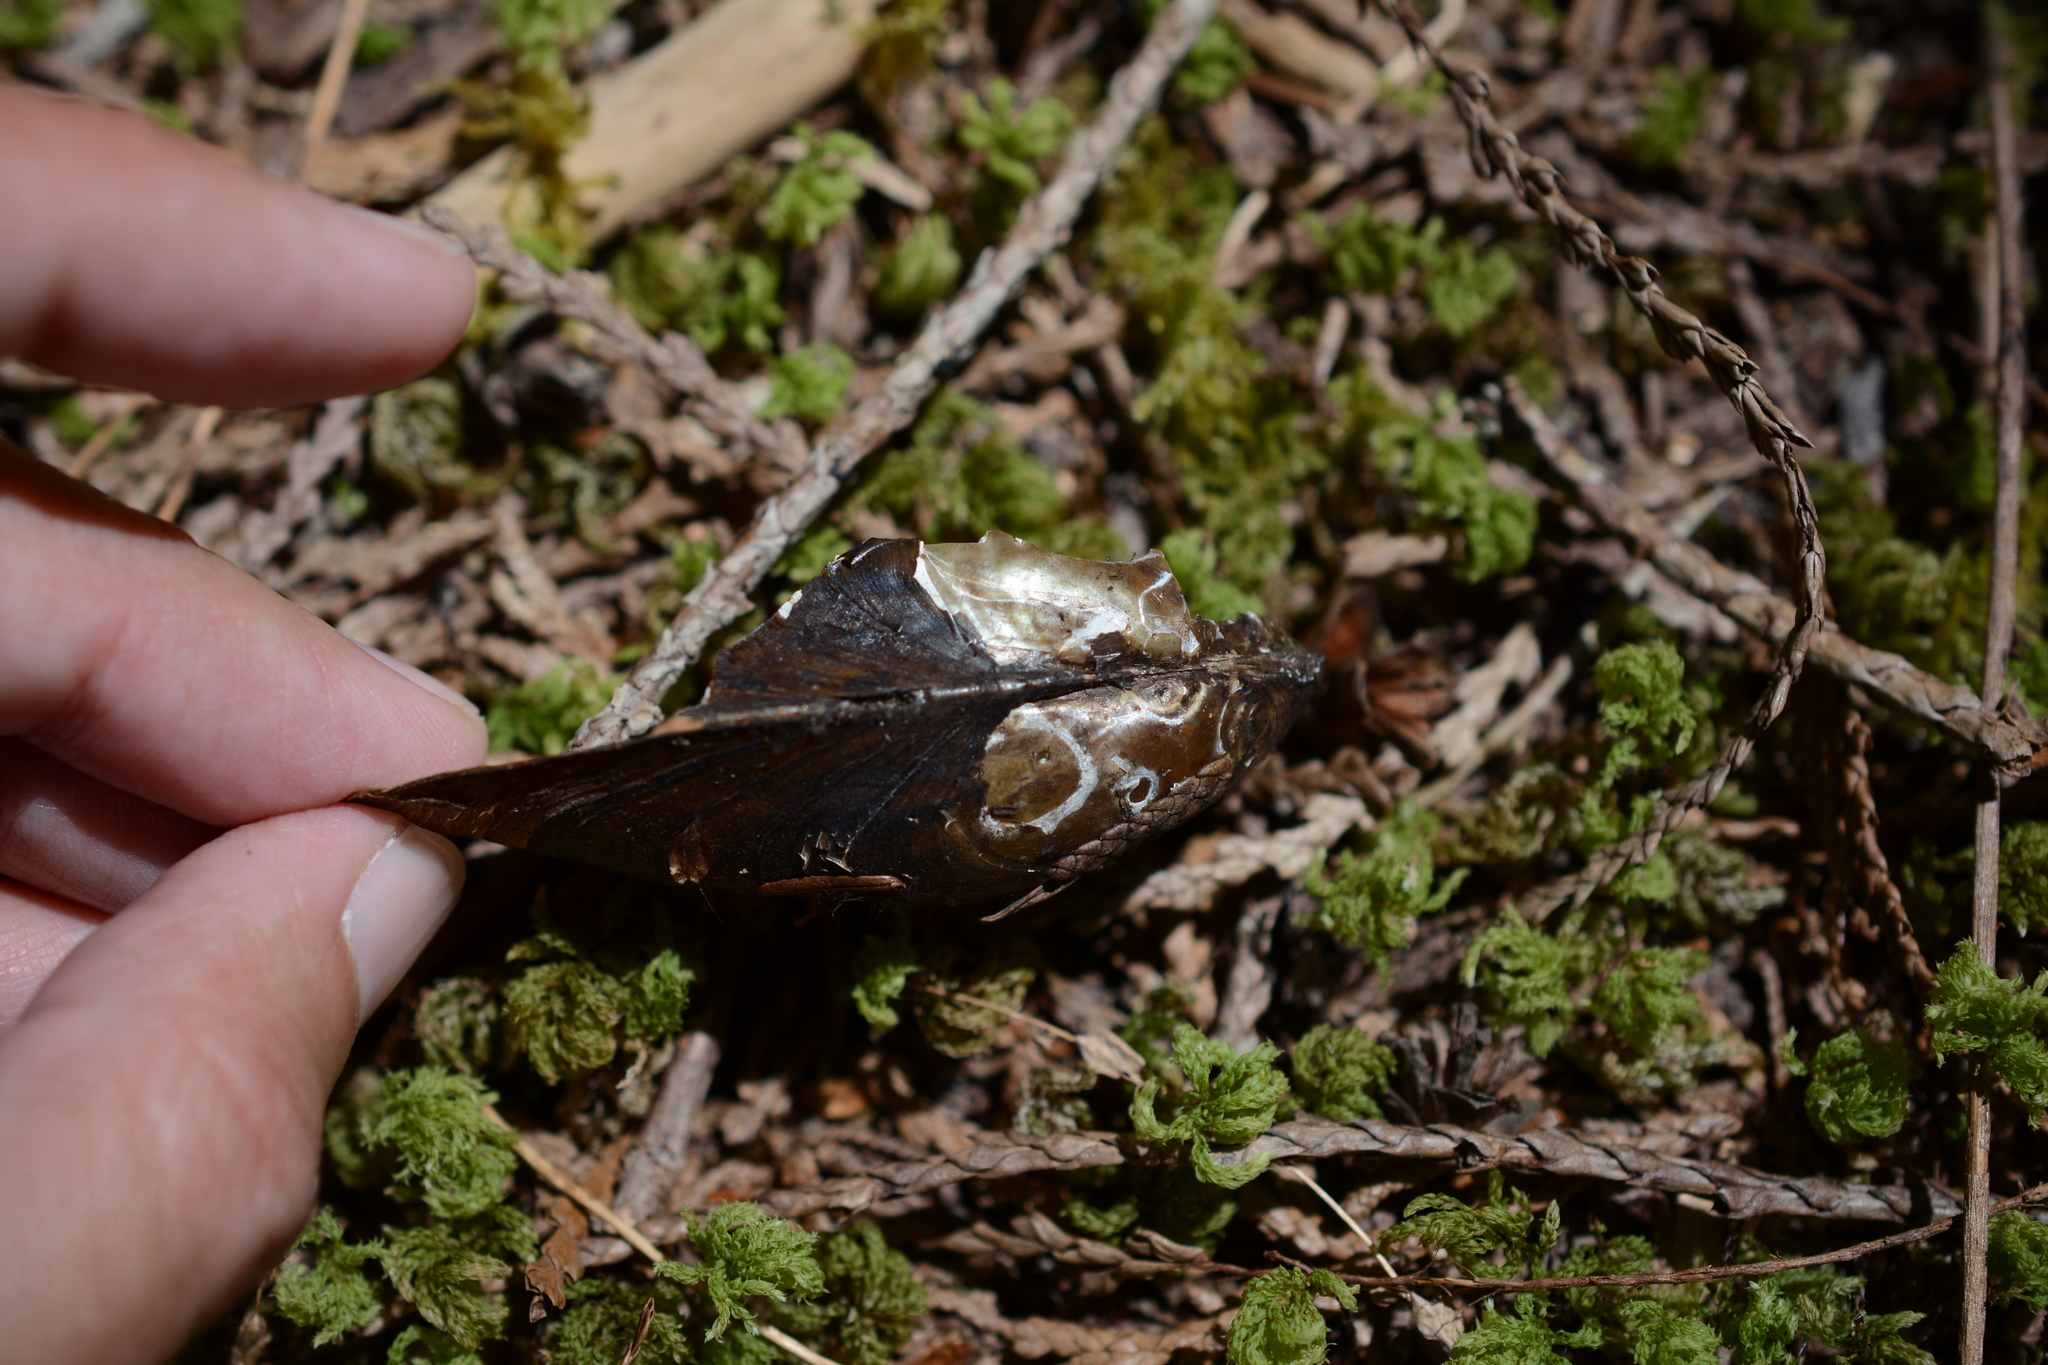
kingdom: Animalia
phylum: Mollusca
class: Bivalvia
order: Unionida
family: Unionidae
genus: Anodonta
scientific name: Anodonta kennerlyi
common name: Western floater
